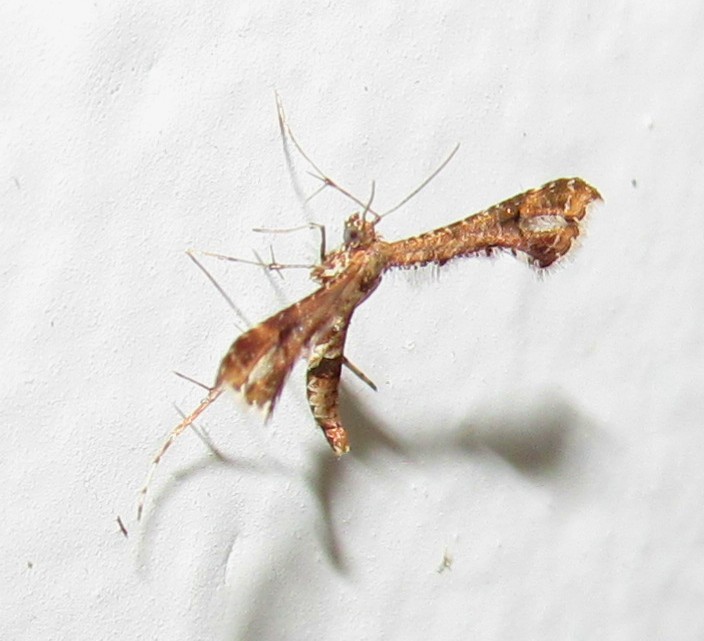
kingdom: Animalia
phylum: Arthropoda
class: Insecta
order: Lepidoptera
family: Pterophoridae
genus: Lantanophaga
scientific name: Lantanophaga pusillidactylus
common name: Moth
